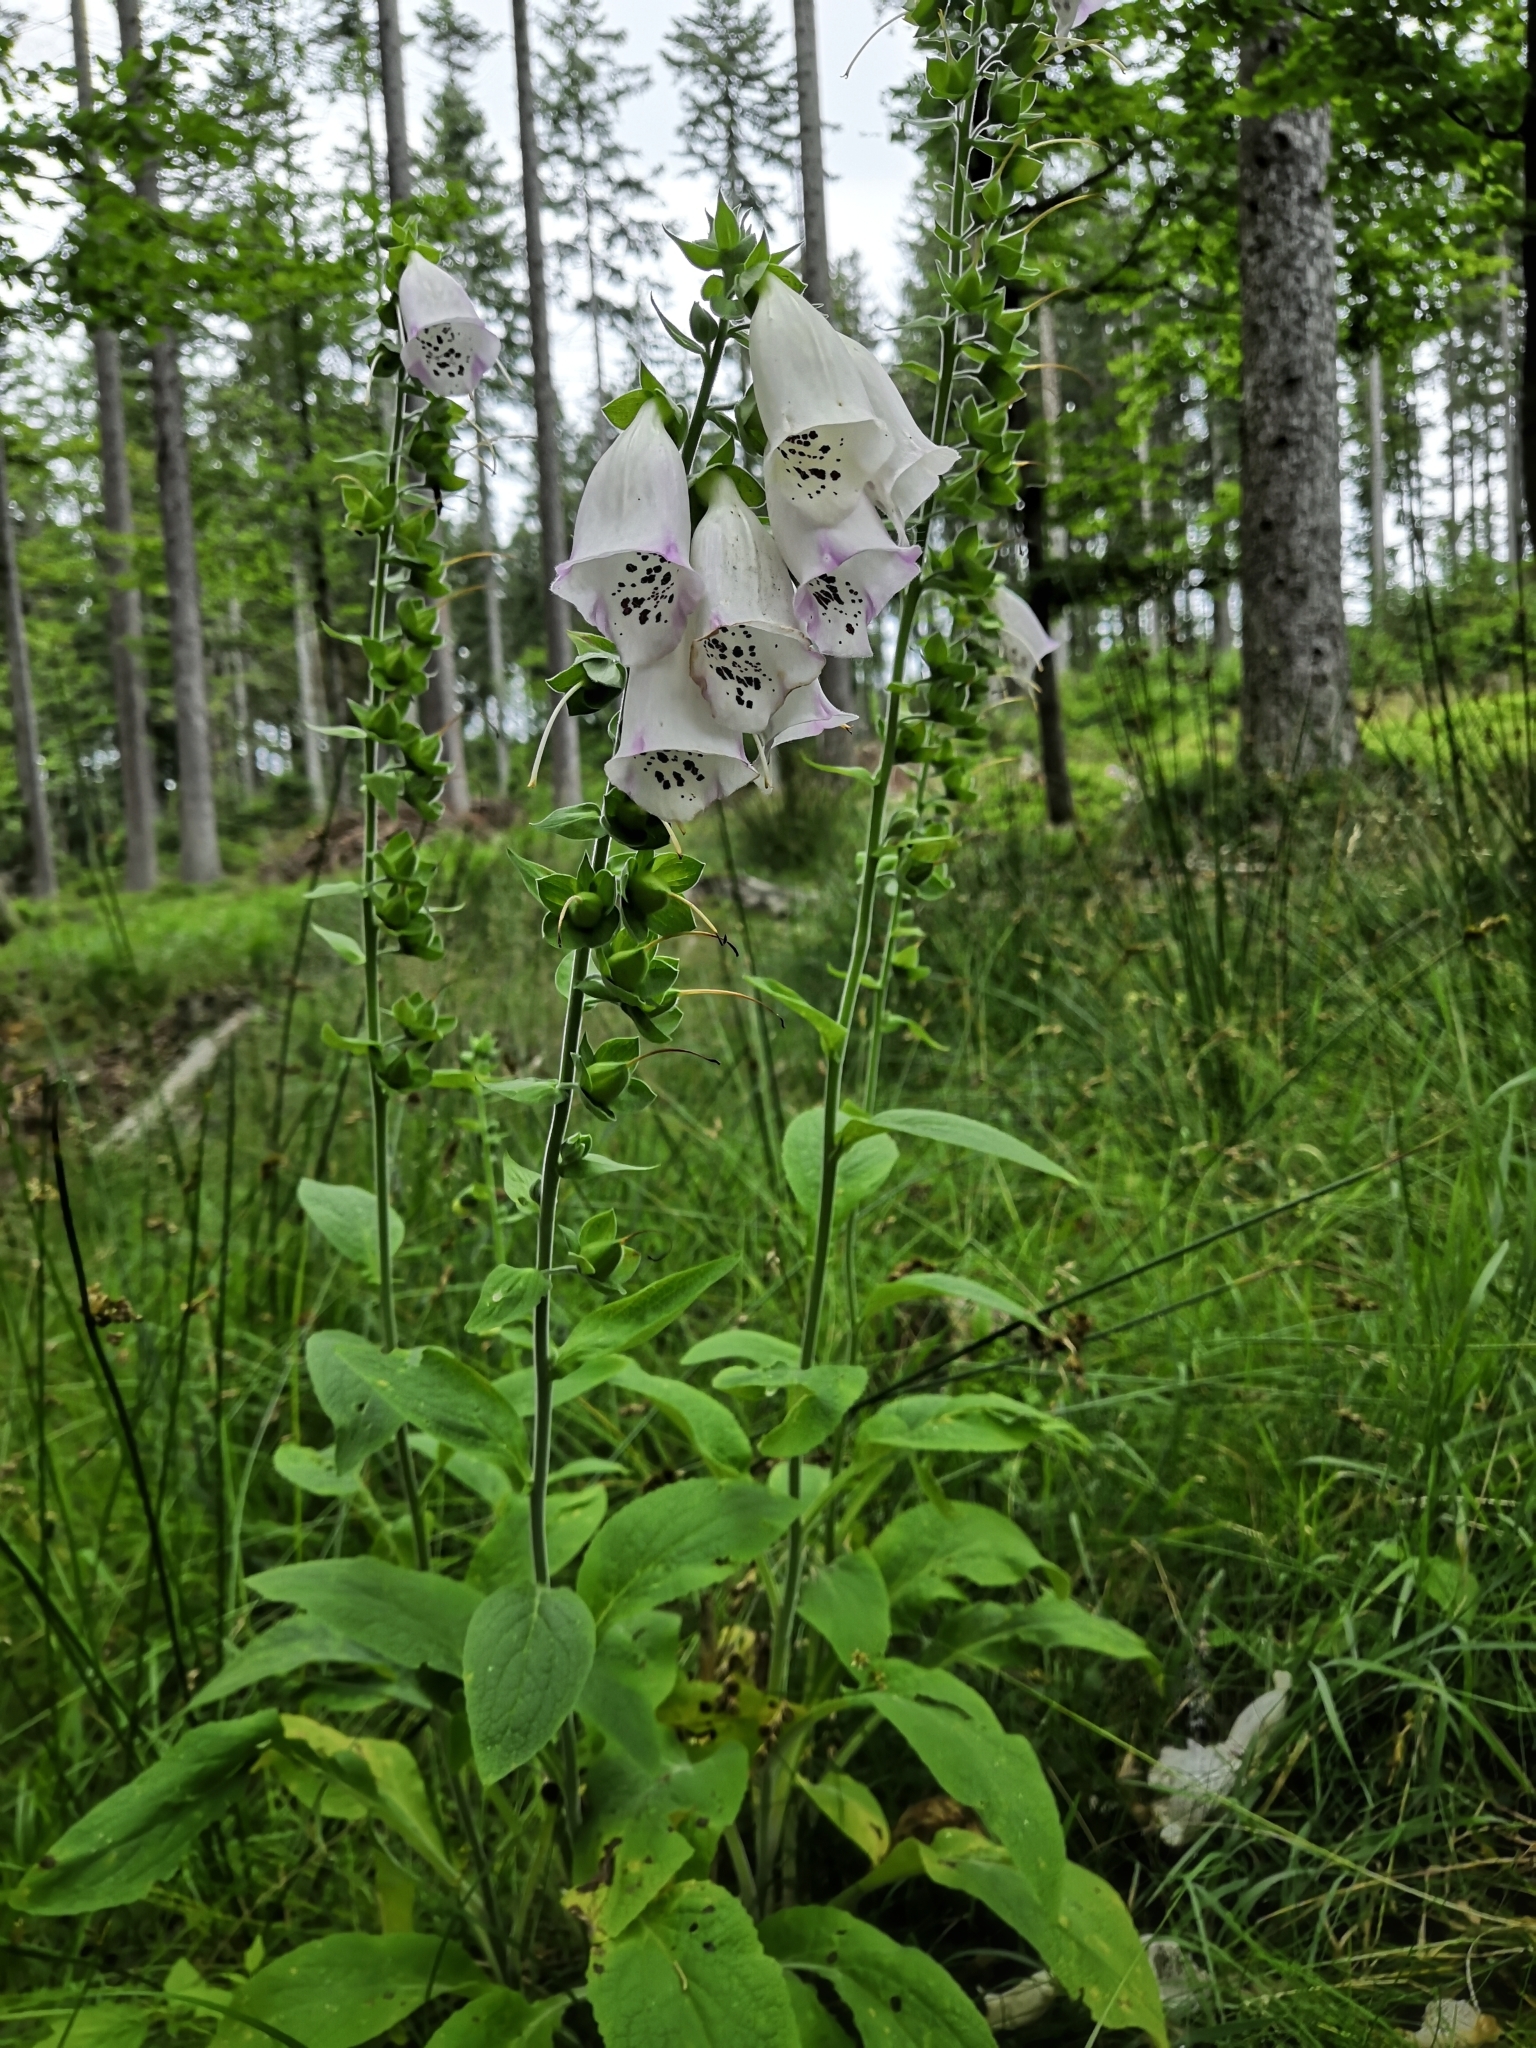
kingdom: Plantae
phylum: Tracheophyta
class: Magnoliopsida
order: Lamiales
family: Plantaginaceae
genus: Digitalis
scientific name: Digitalis purpurea
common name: Foxglove
